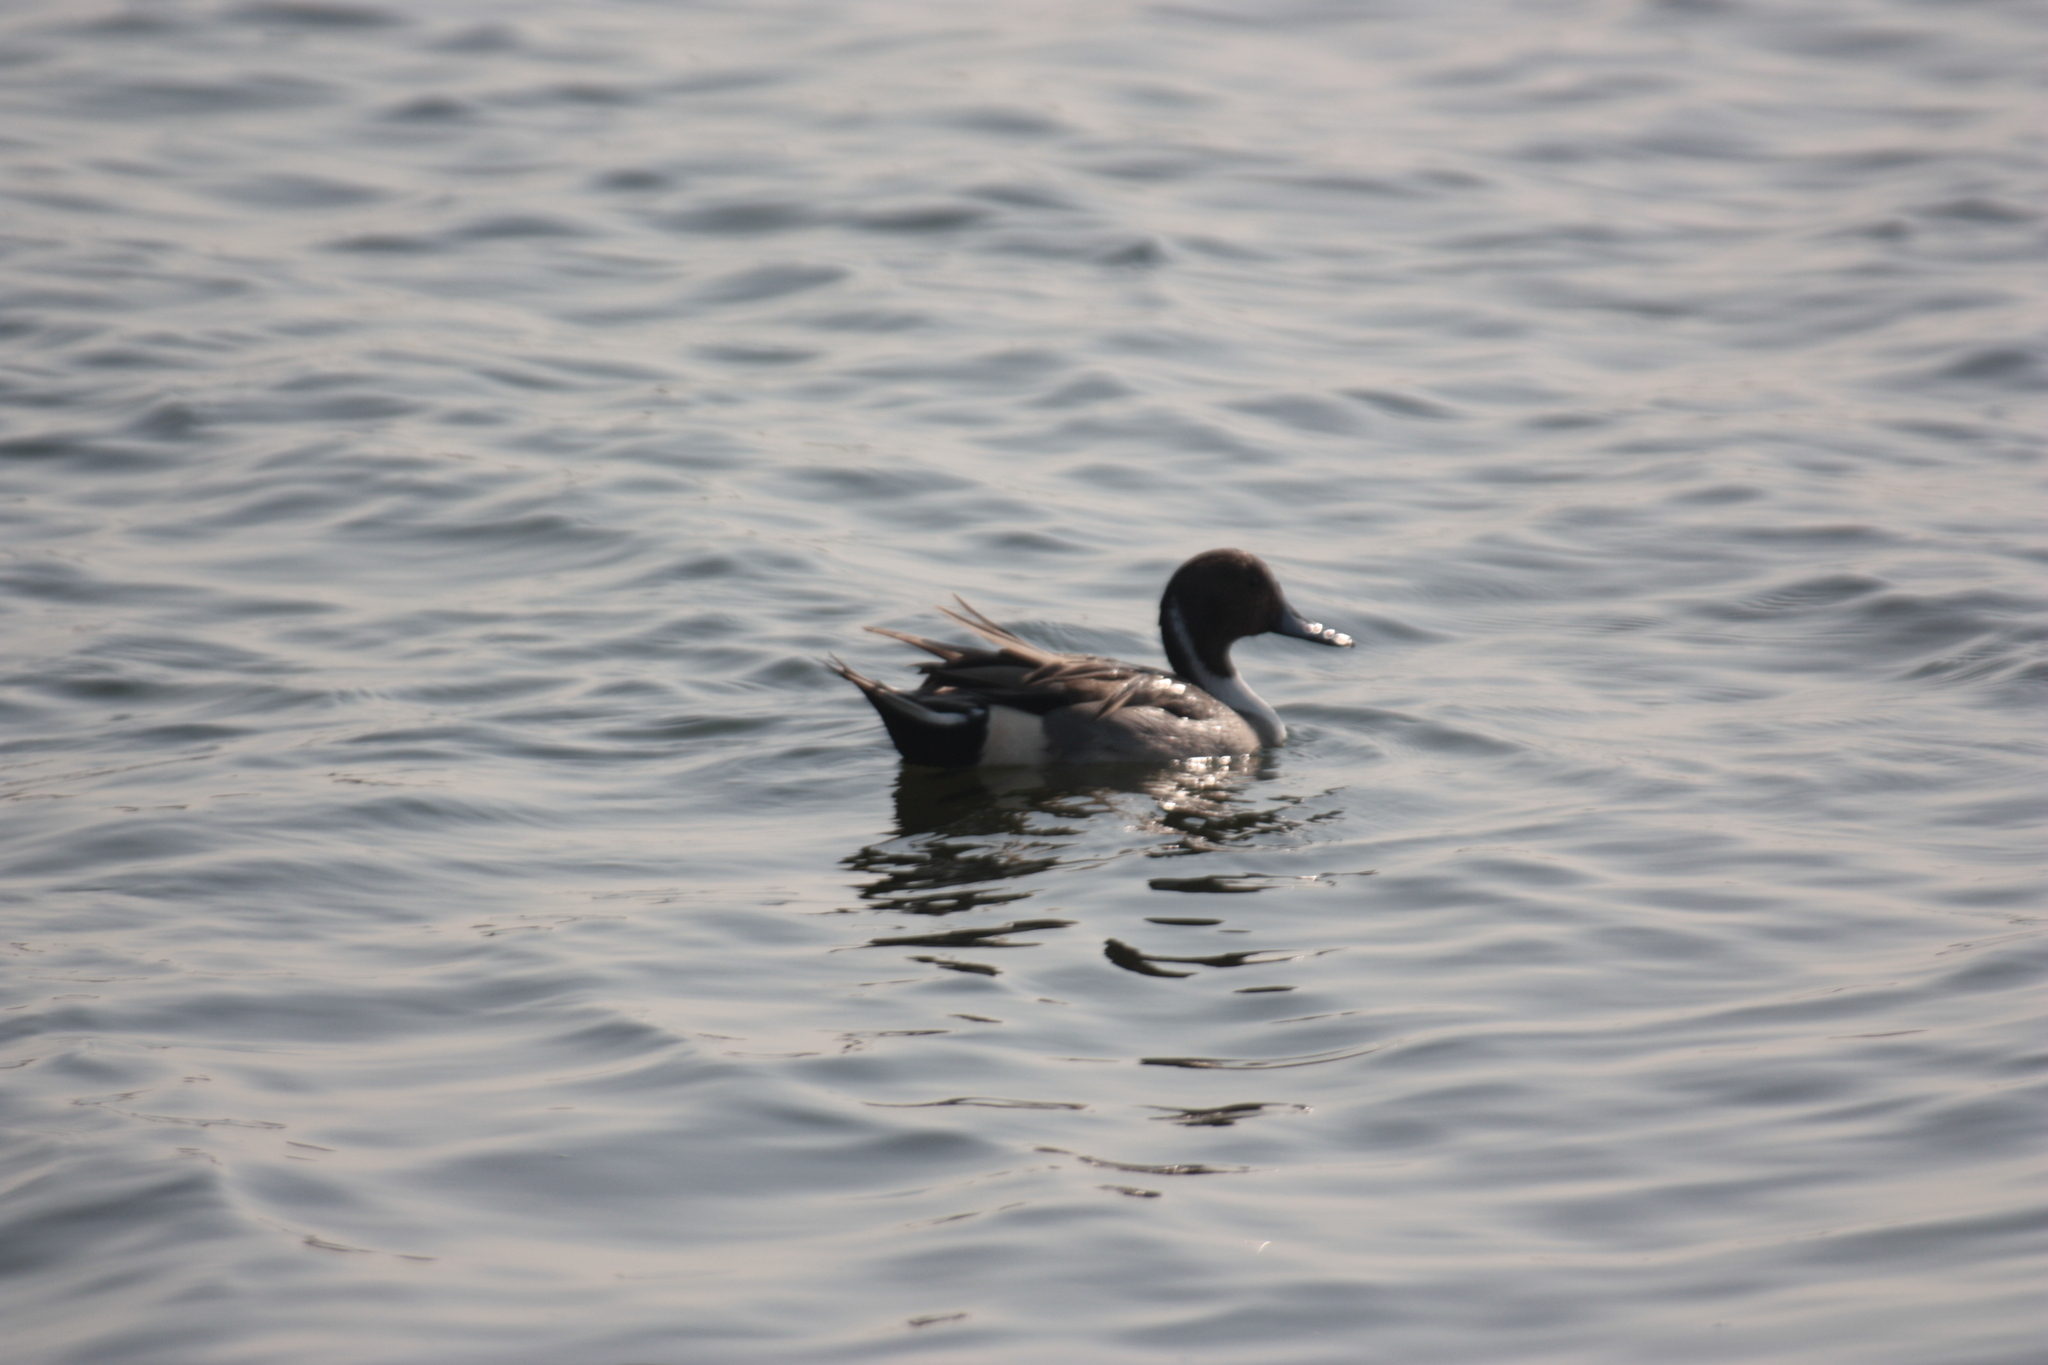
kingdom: Animalia
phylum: Chordata
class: Aves
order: Anseriformes
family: Anatidae
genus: Anas
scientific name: Anas acuta
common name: Northern pintail
